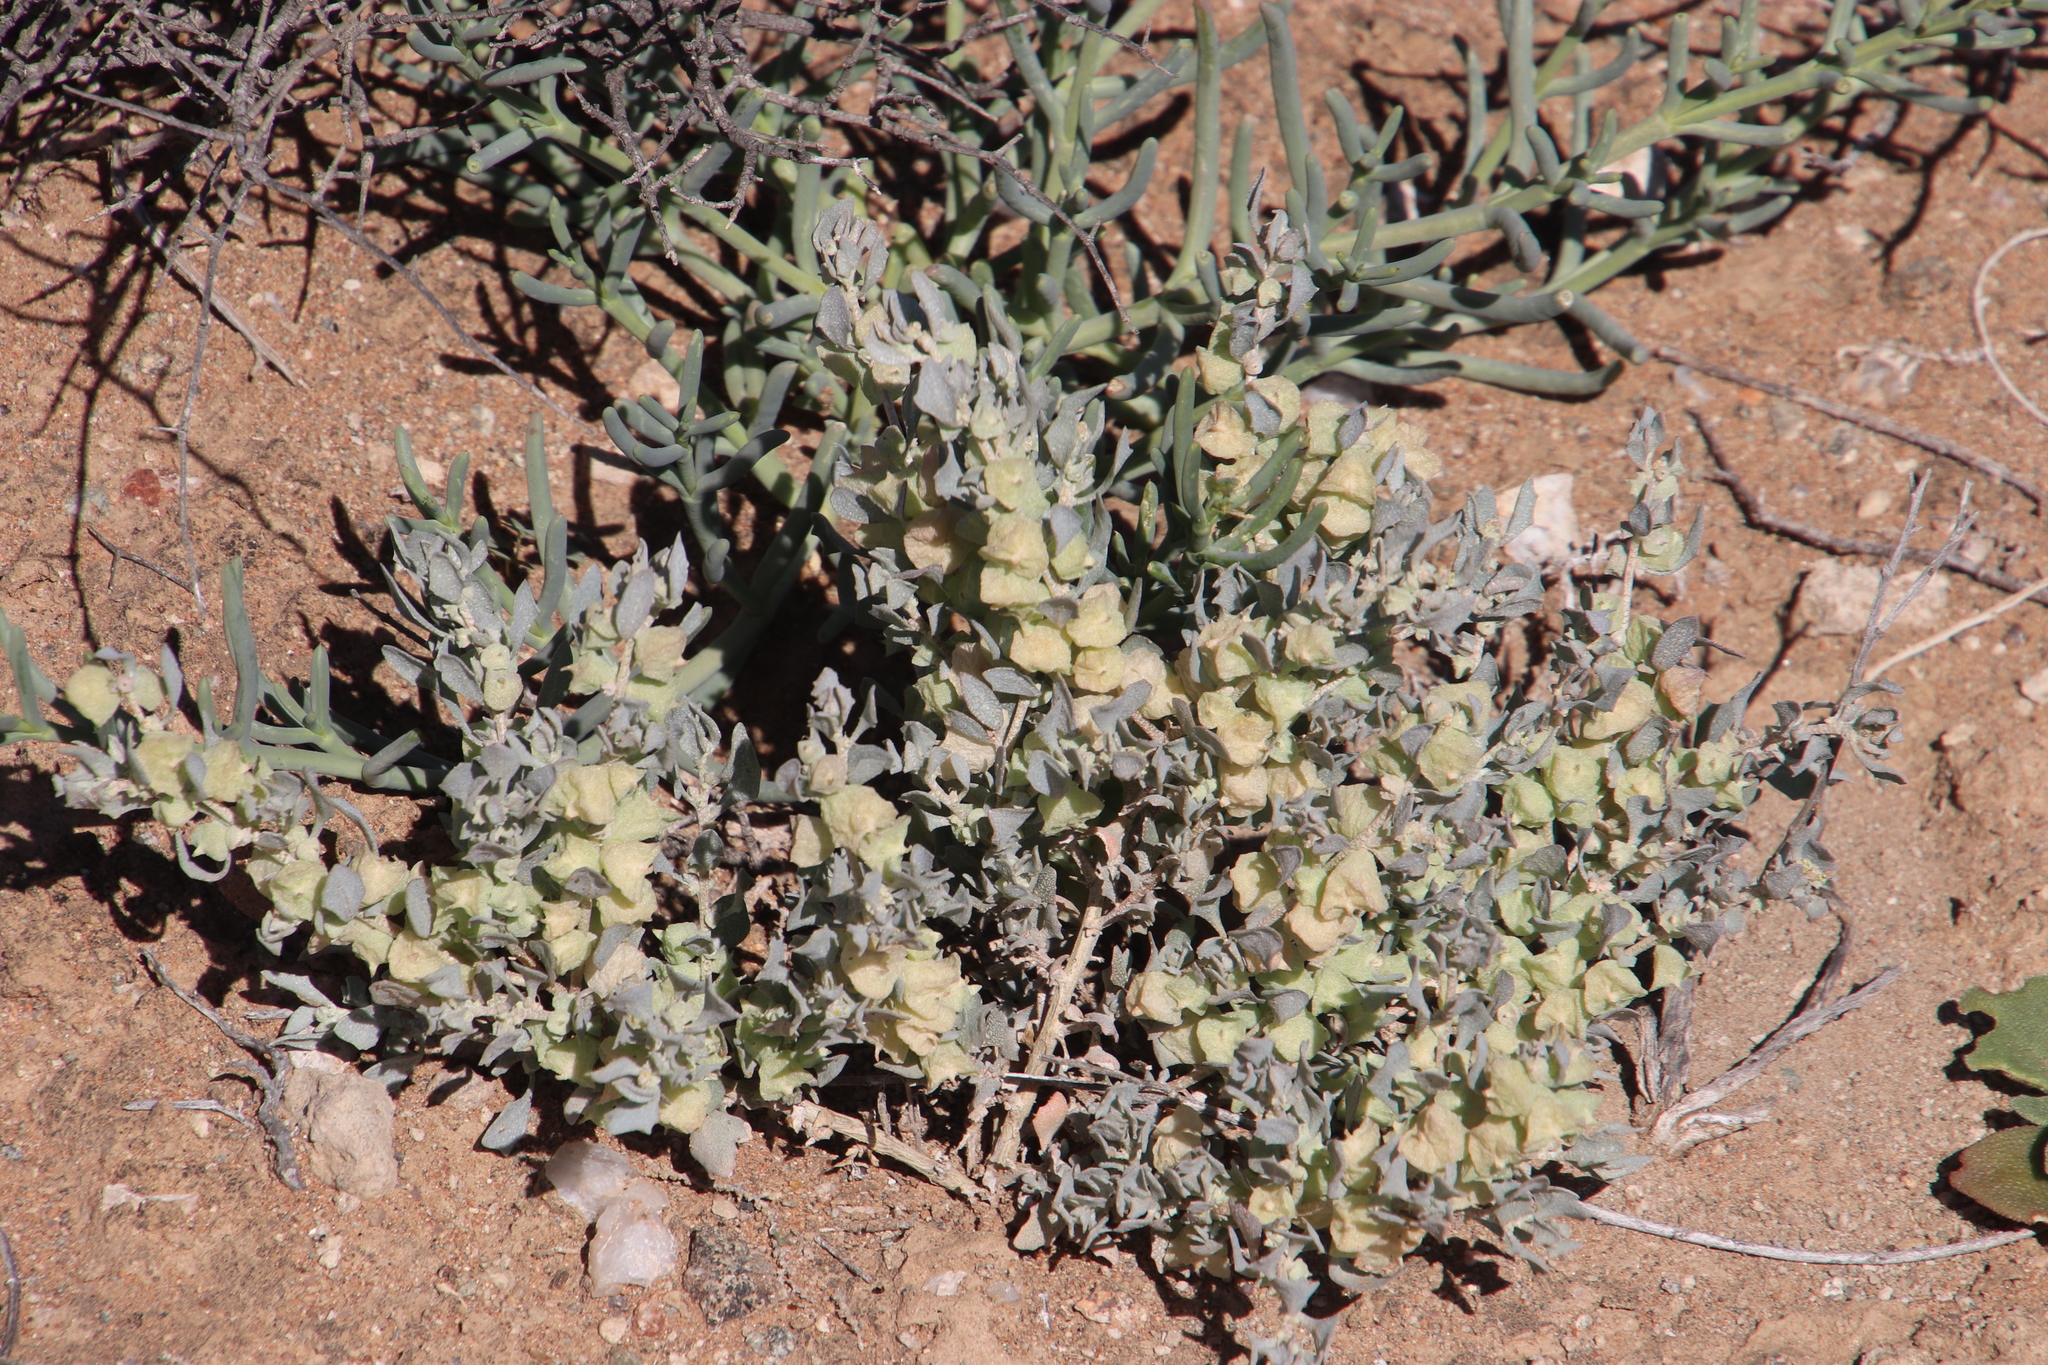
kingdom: Plantae
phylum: Tracheophyta
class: Magnoliopsida
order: Caryophyllales
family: Amaranthaceae
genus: Atriplex
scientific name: Atriplex lindleyi
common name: Lindley's saltbush
